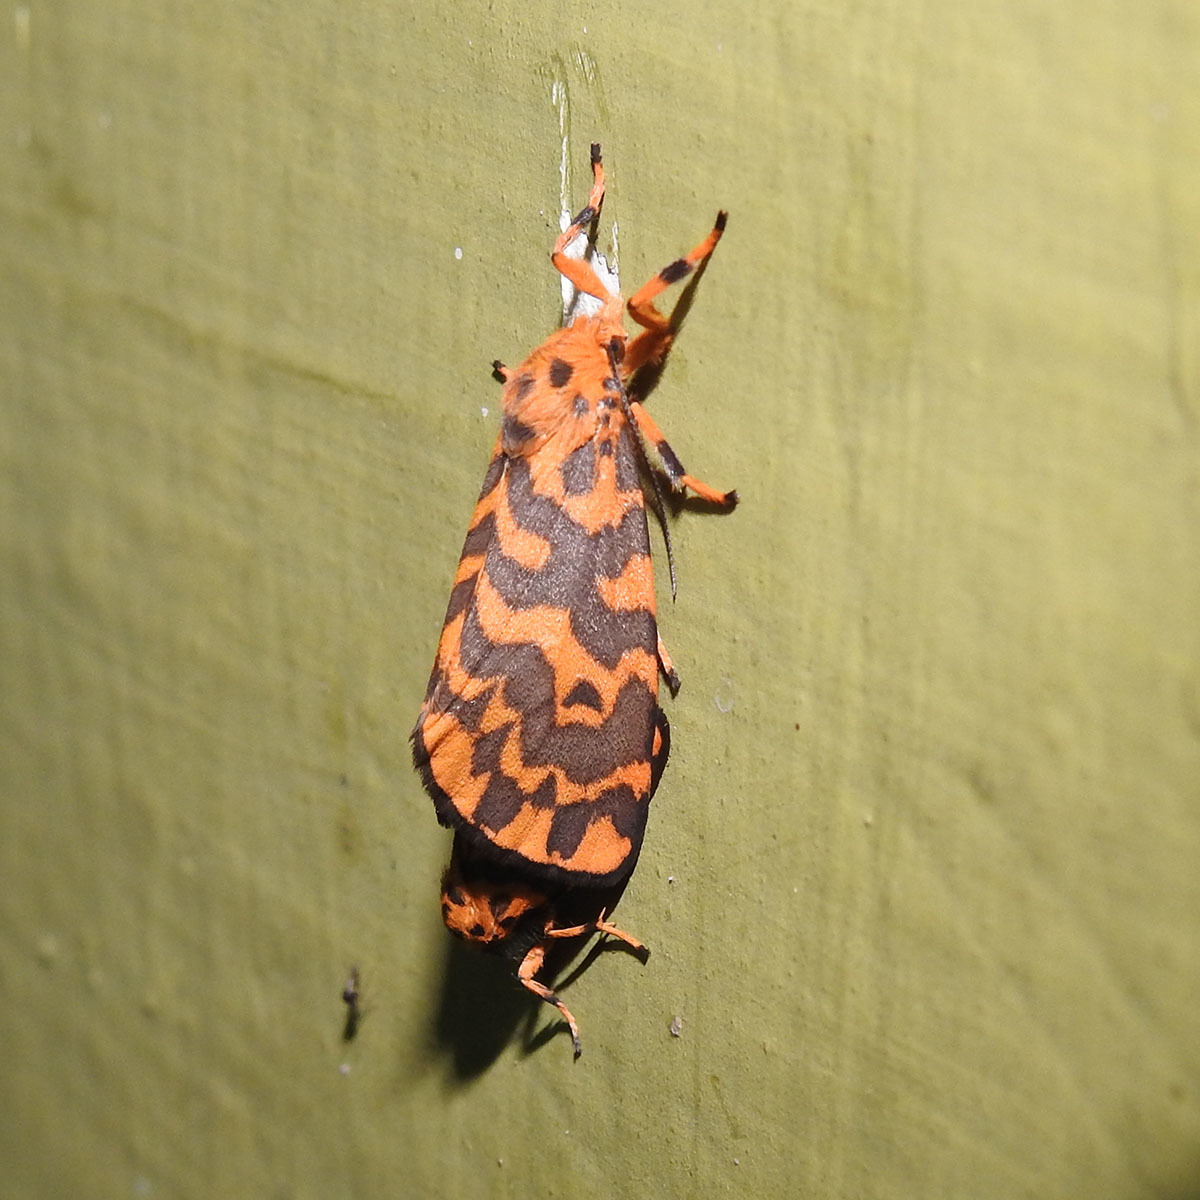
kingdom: Animalia
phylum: Arthropoda
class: Insecta
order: Lepidoptera
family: Erebidae
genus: Nepita
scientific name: Nepita conferta
